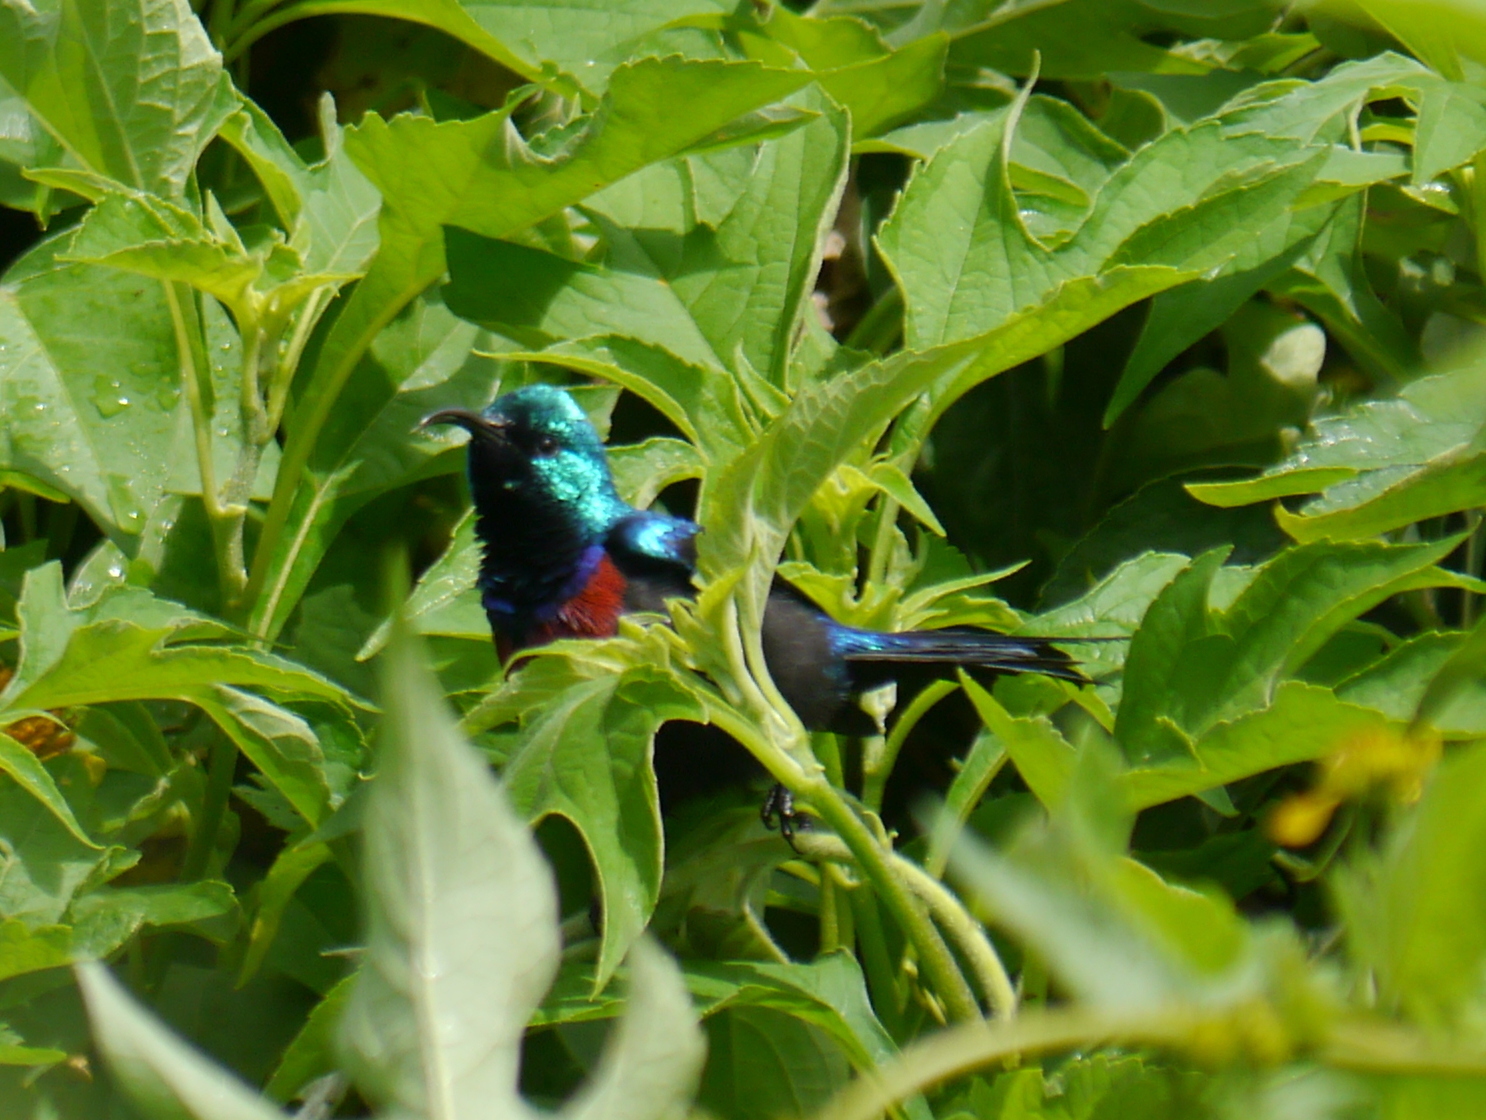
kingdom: Animalia
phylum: Chordata
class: Aves
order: Passeriformes
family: Nectariniidae
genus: Cinnyris
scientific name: Cinnyris erythrocercus
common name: Red-chested sunbird
